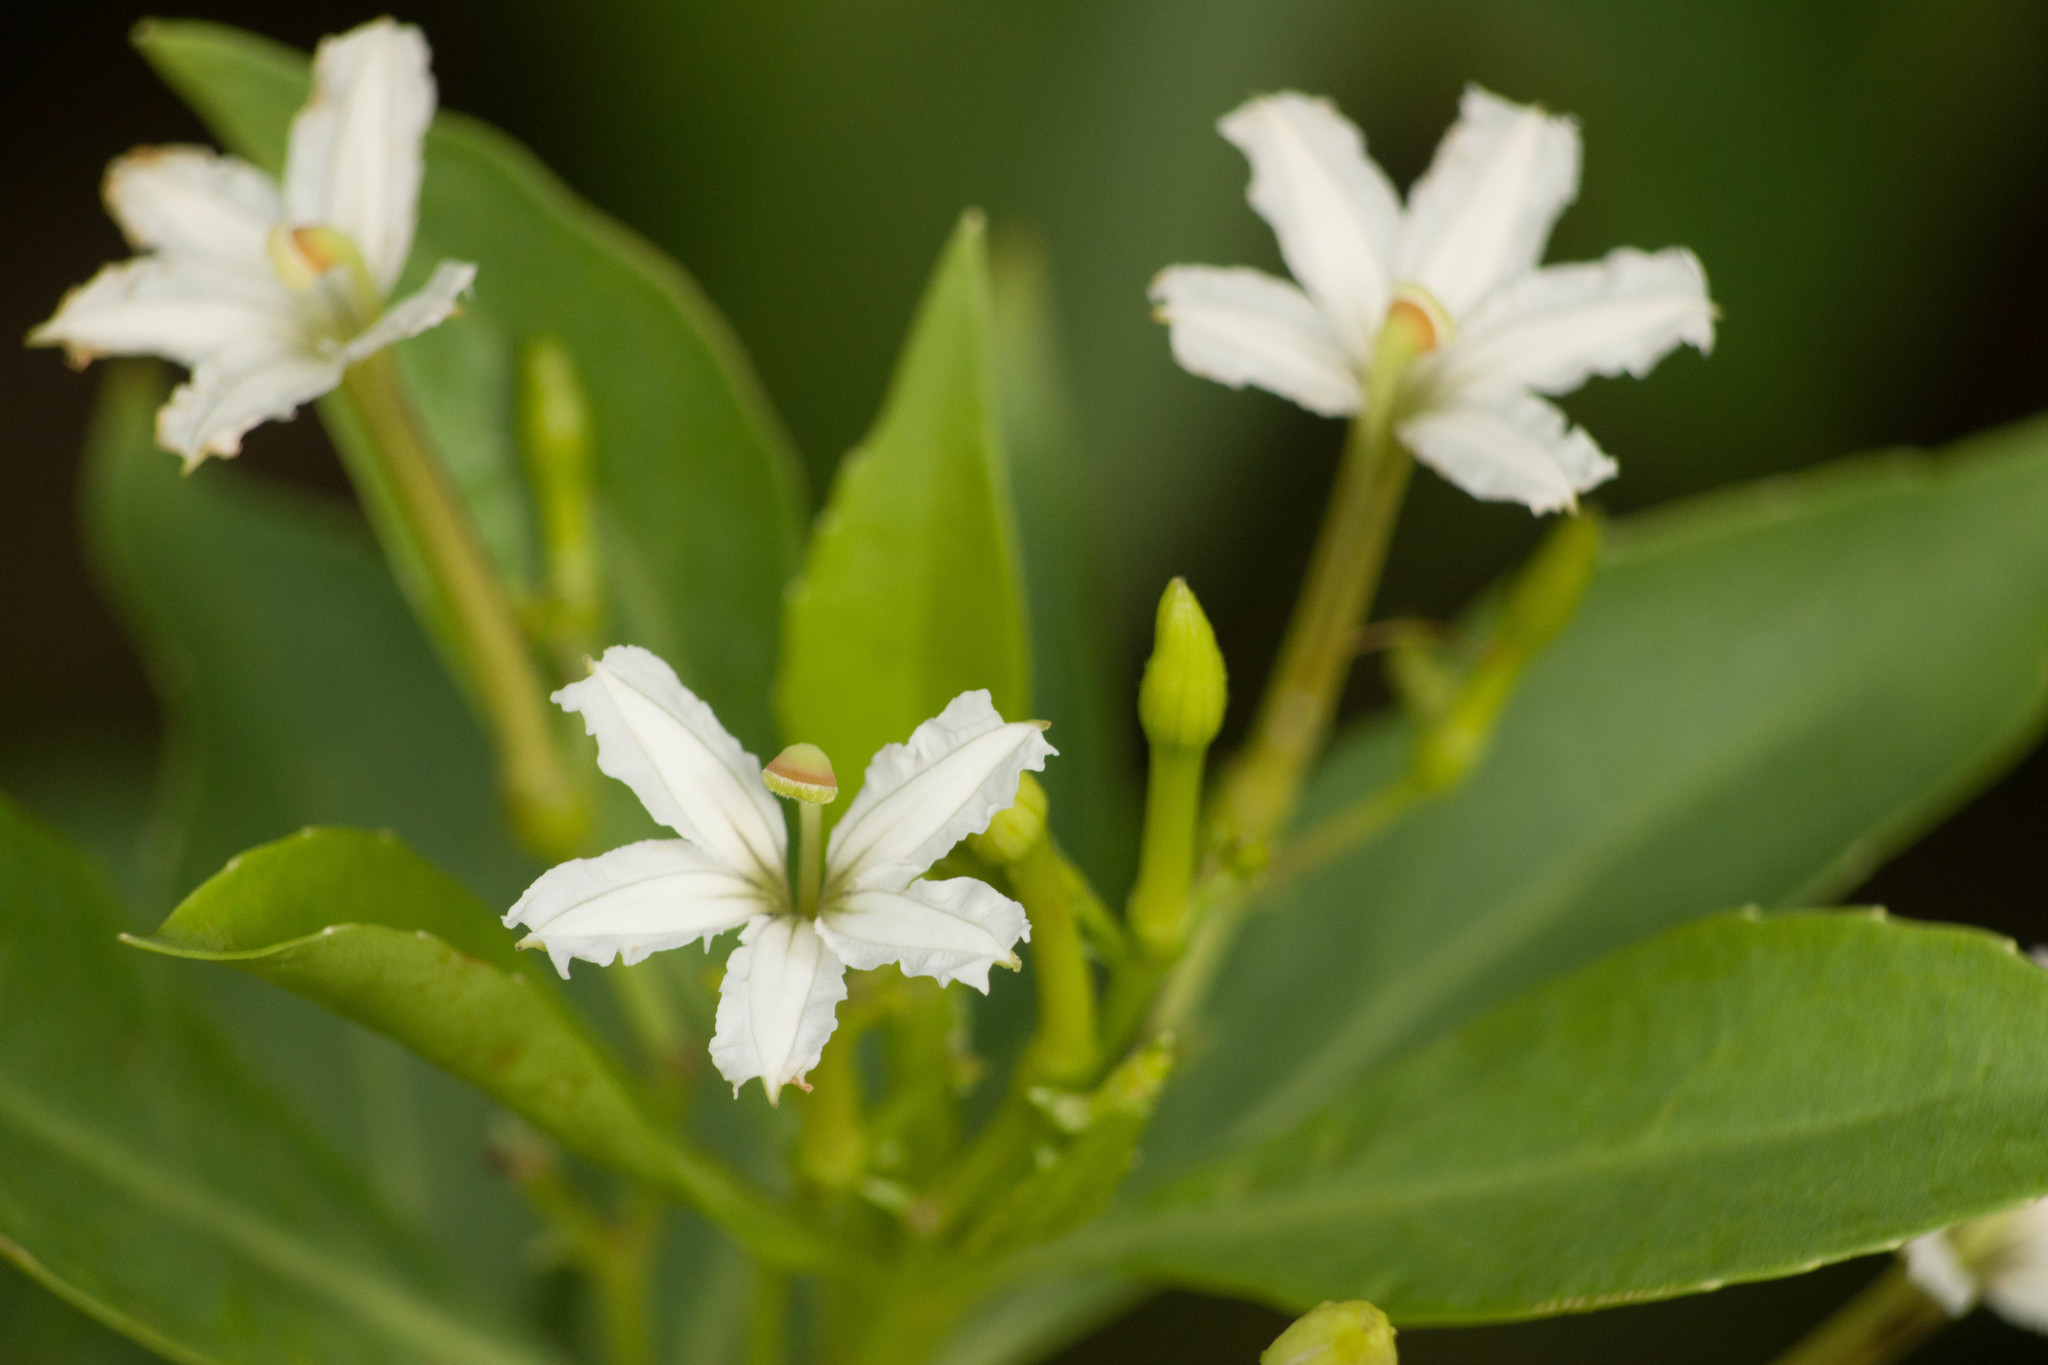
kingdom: Plantae
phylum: Tracheophyta
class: Magnoliopsida
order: Asterales
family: Goodeniaceae
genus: Scaevola
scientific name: Scaevola gaudichaudiana
